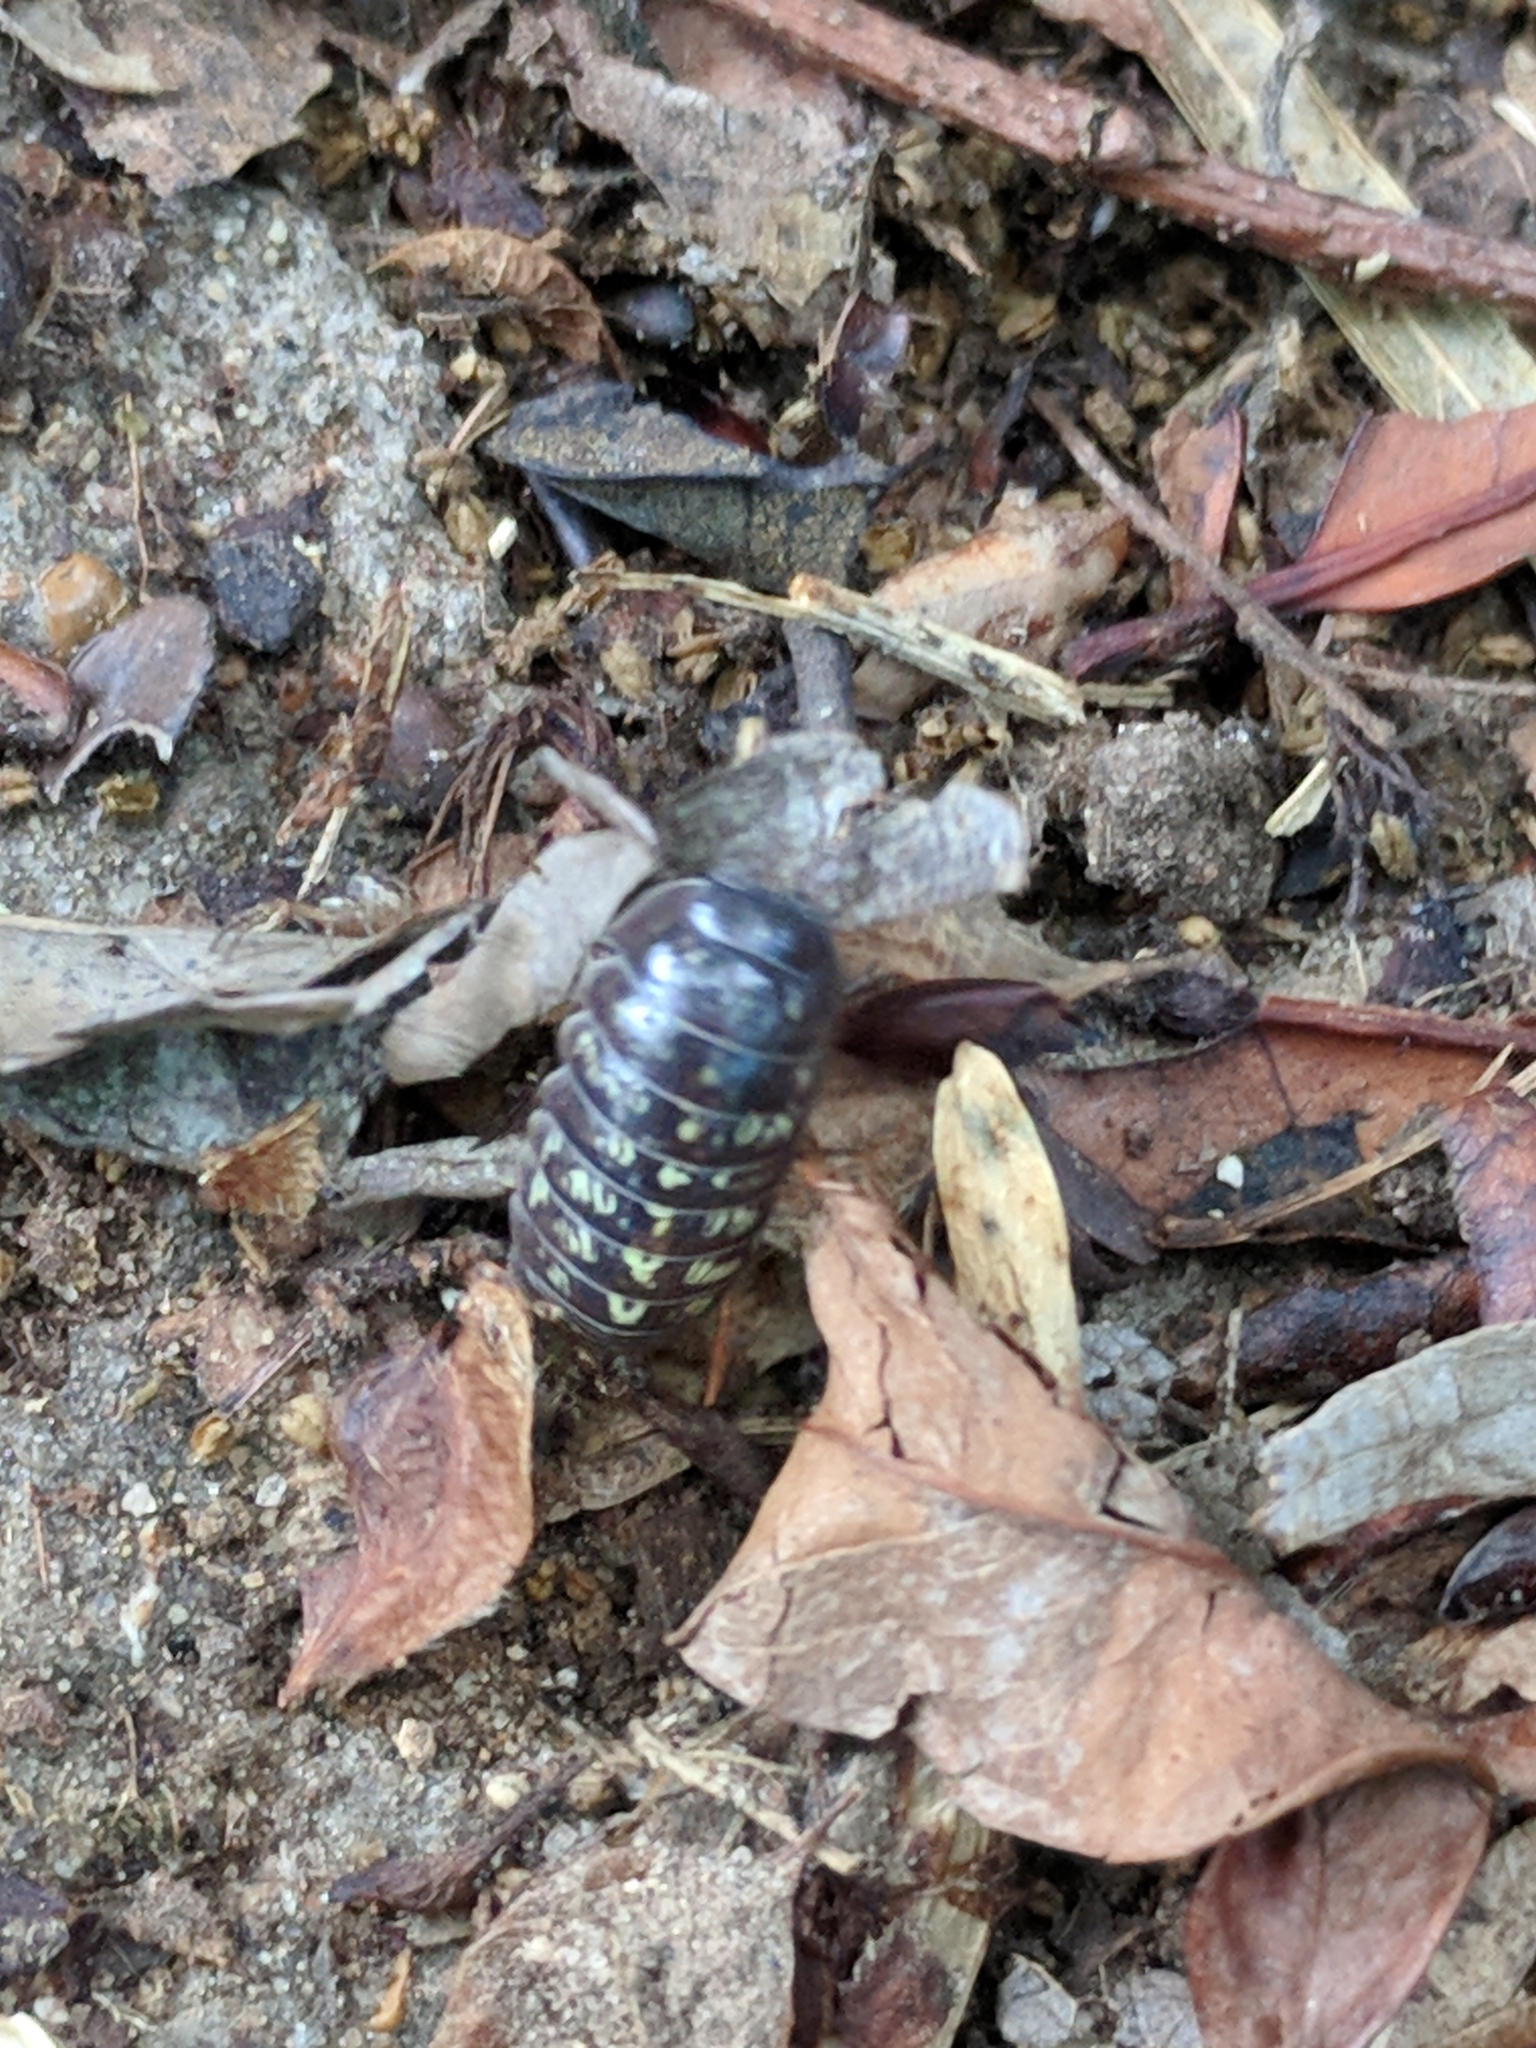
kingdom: Animalia
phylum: Arthropoda
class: Malacostraca
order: Isopoda
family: Armadillidiidae
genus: Armadillidium
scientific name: Armadillidium vulgare
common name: Common pill woodlouse
